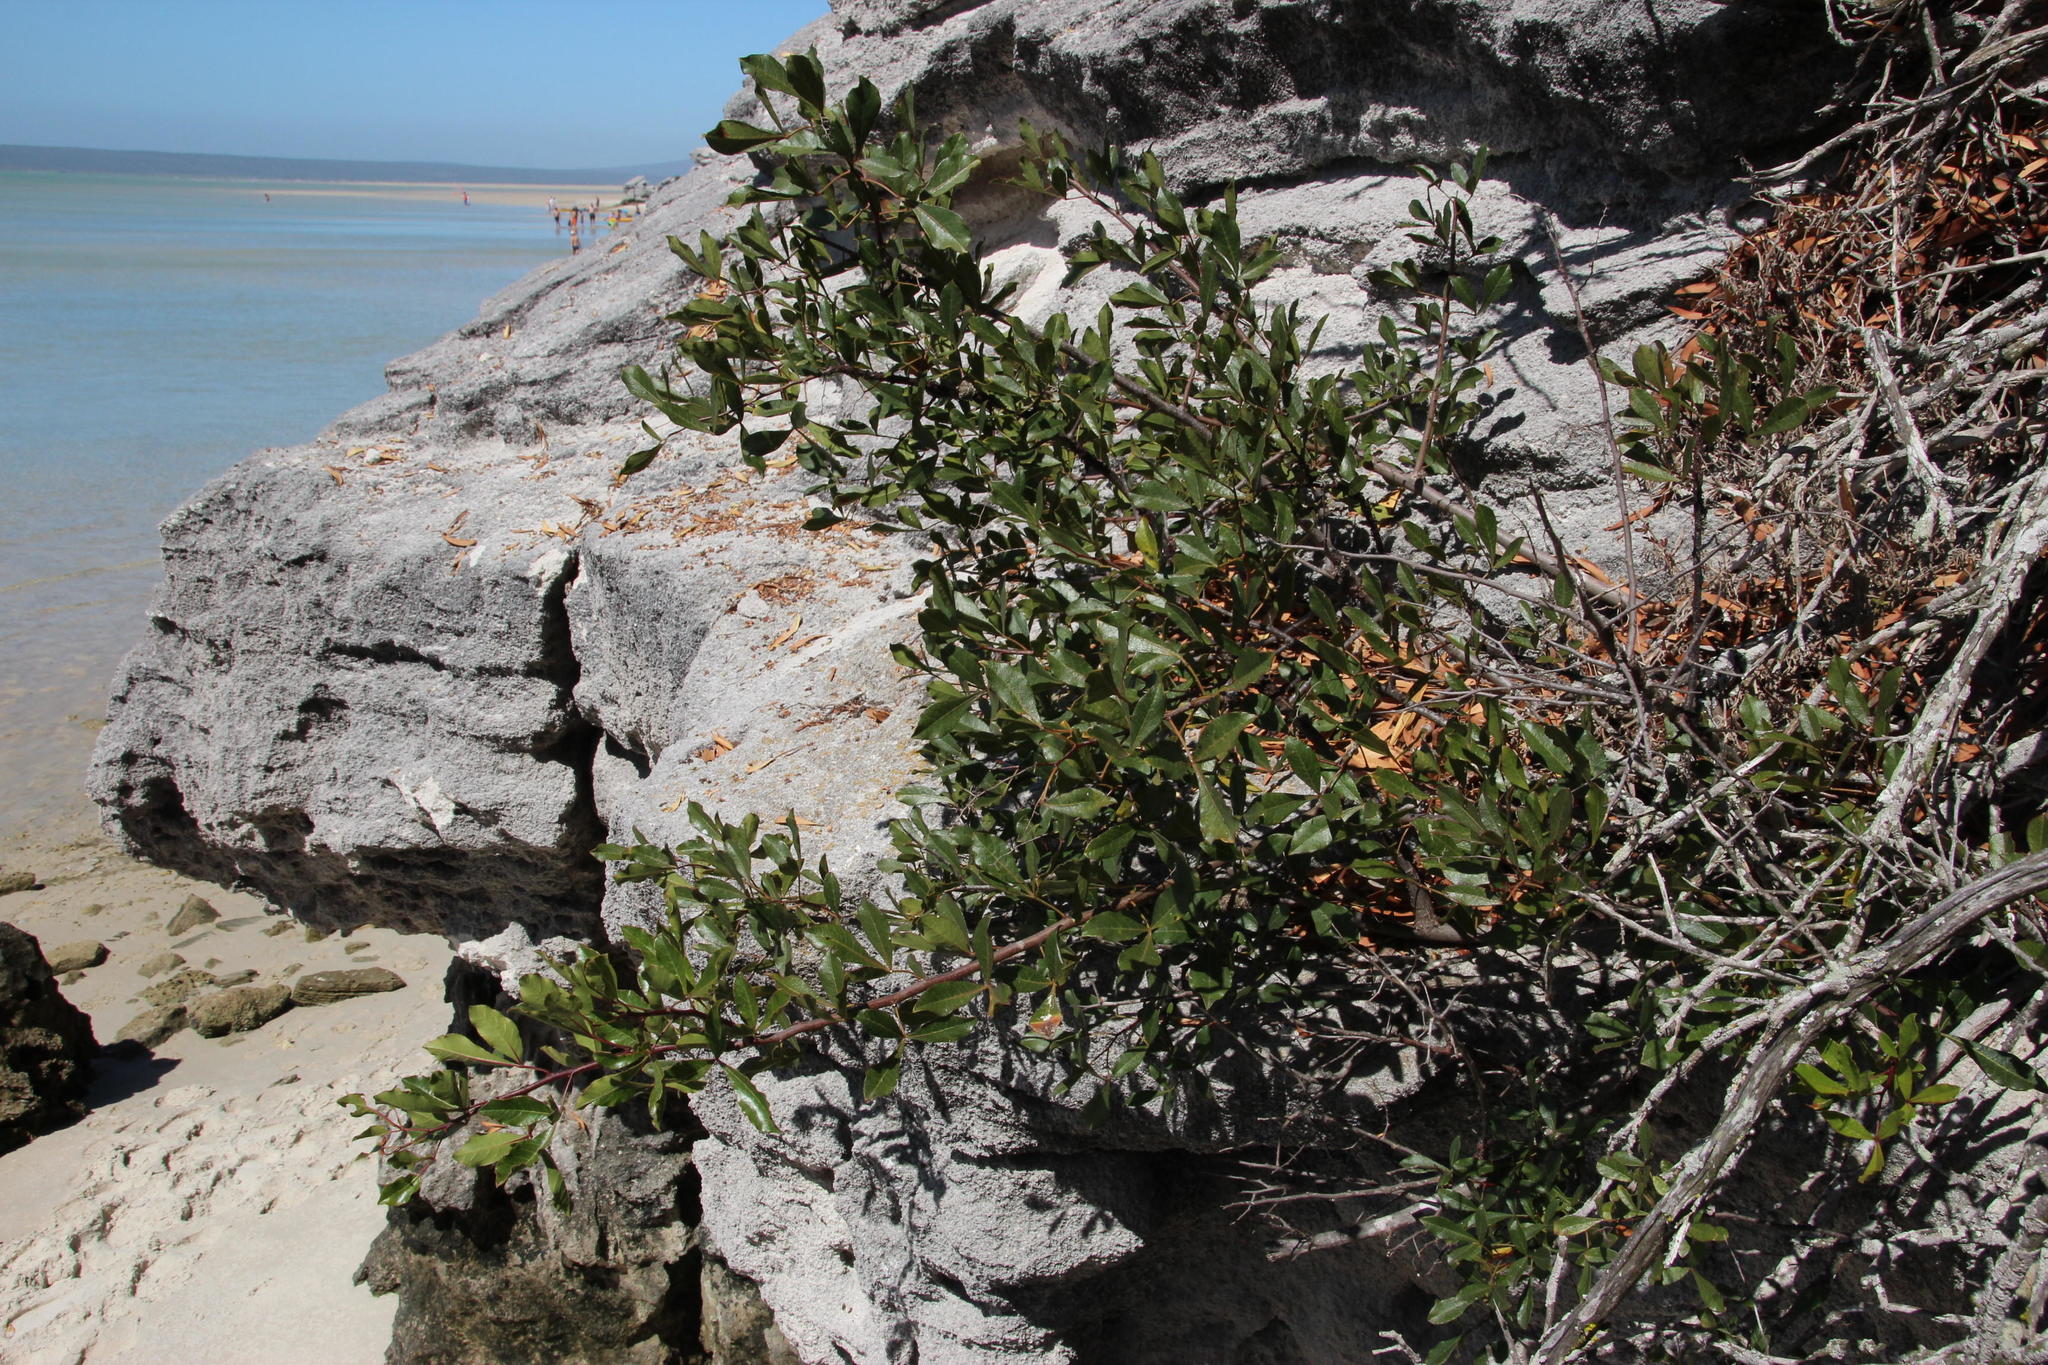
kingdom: Plantae
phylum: Tracheophyta
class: Magnoliopsida
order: Sapindales
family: Anacardiaceae
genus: Searsia
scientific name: Searsia laevigata
